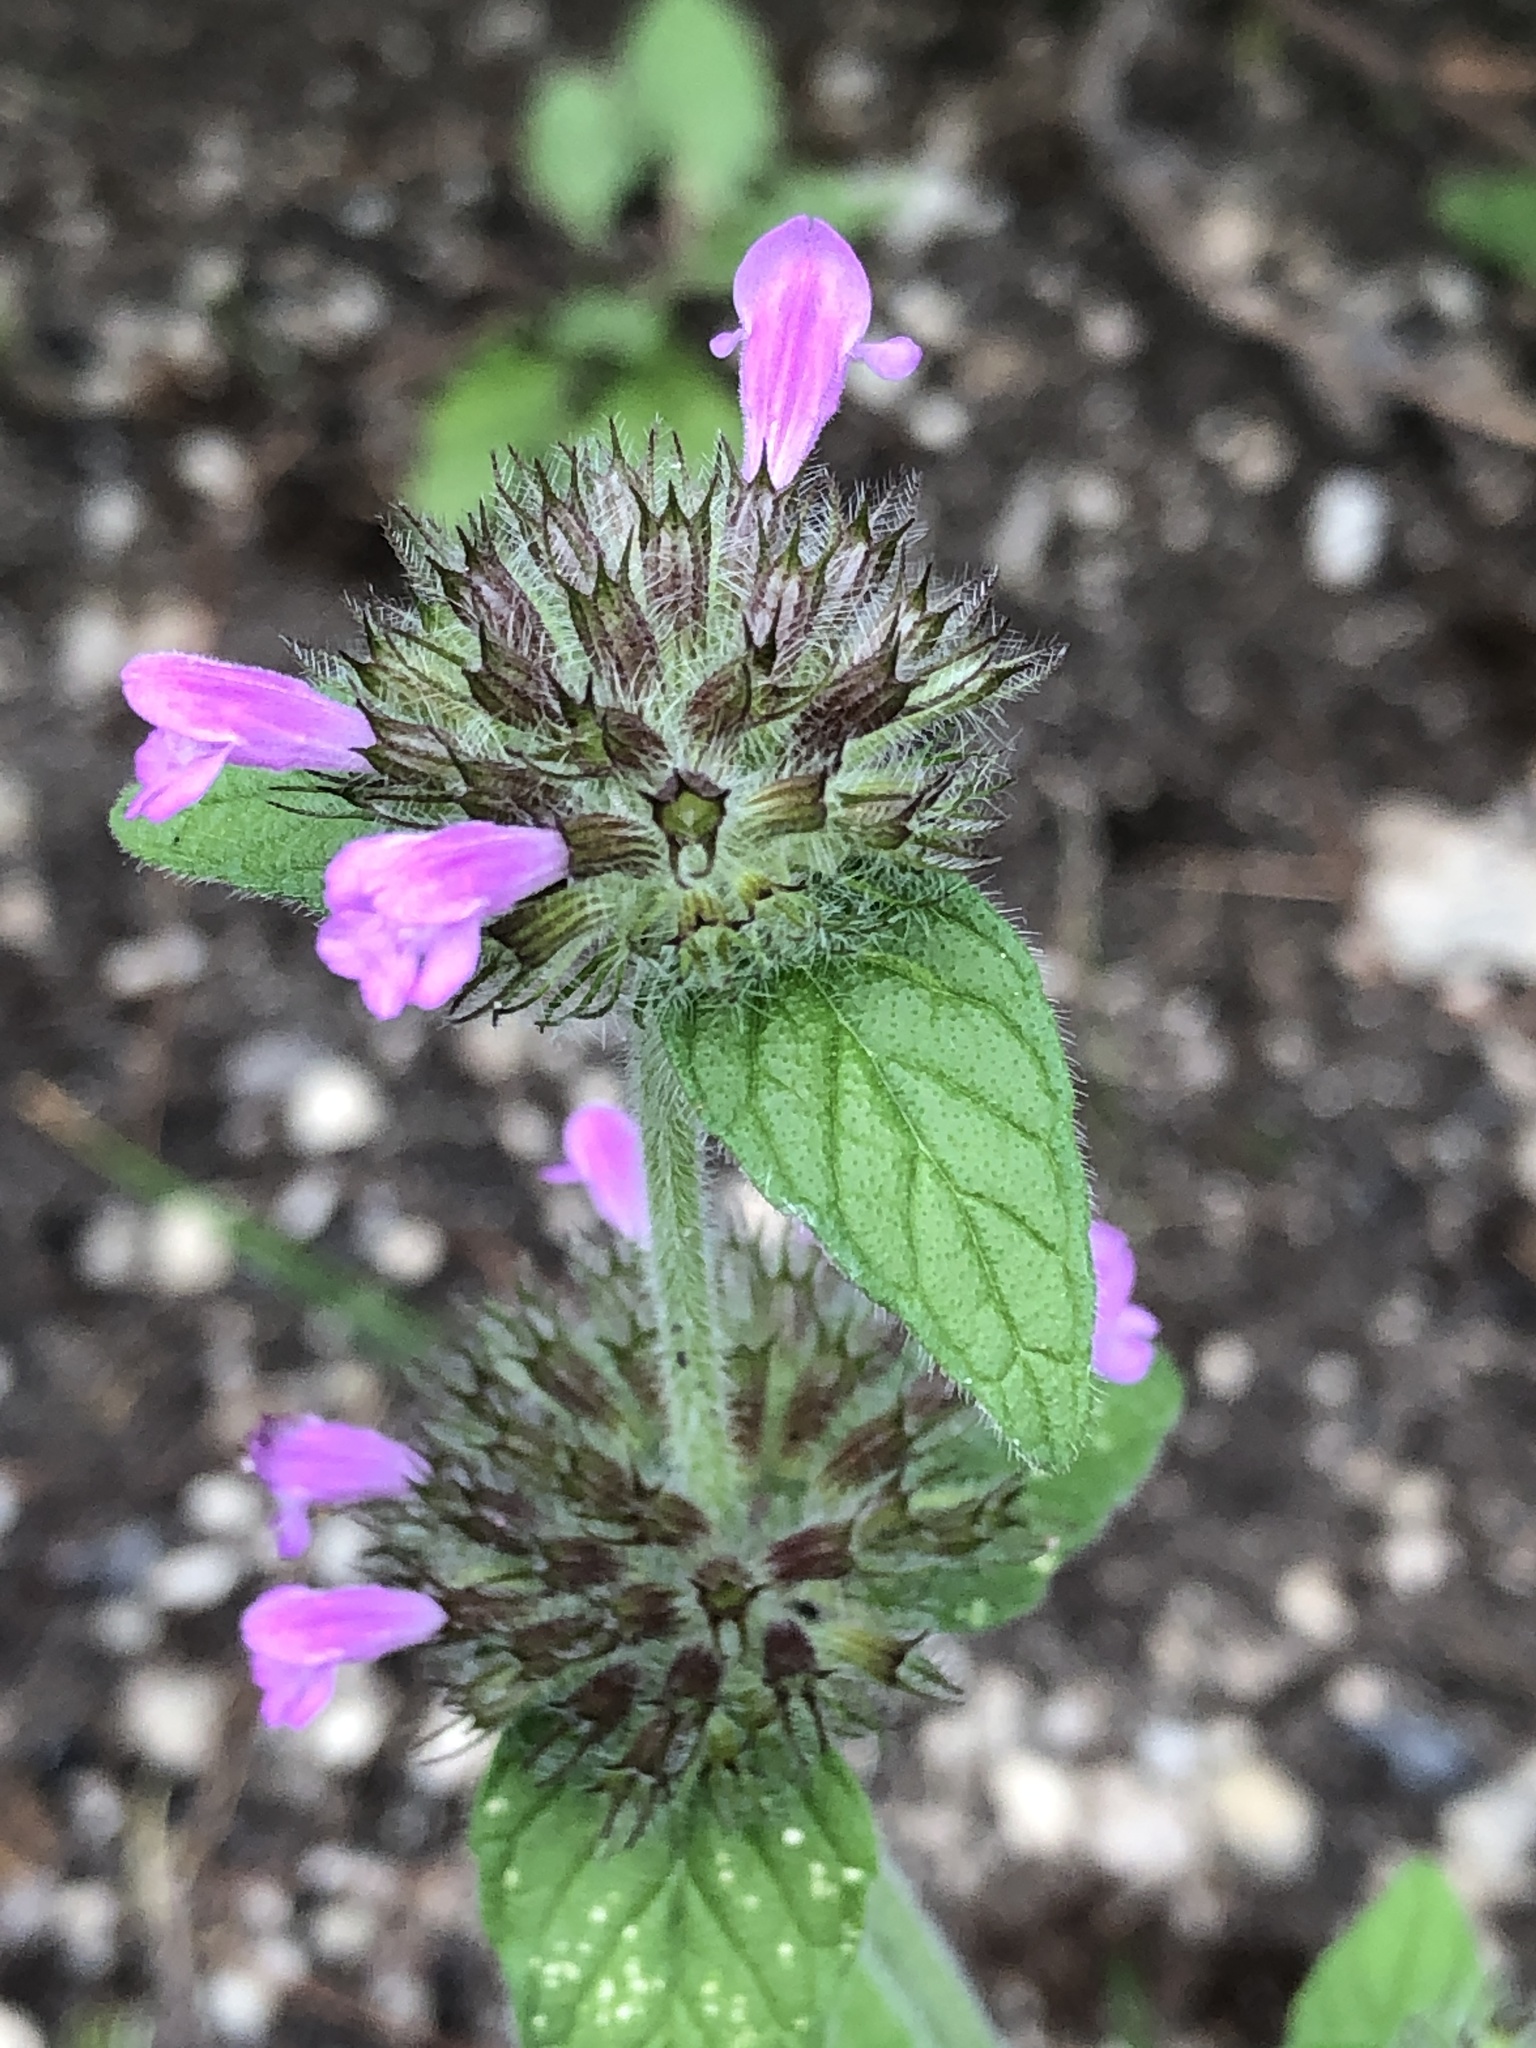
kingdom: Plantae
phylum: Tracheophyta
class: Magnoliopsida
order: Lamiales
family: Lamiaceae
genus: Clinopodium
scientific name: Clinopodium vulgare
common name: Wild basil
